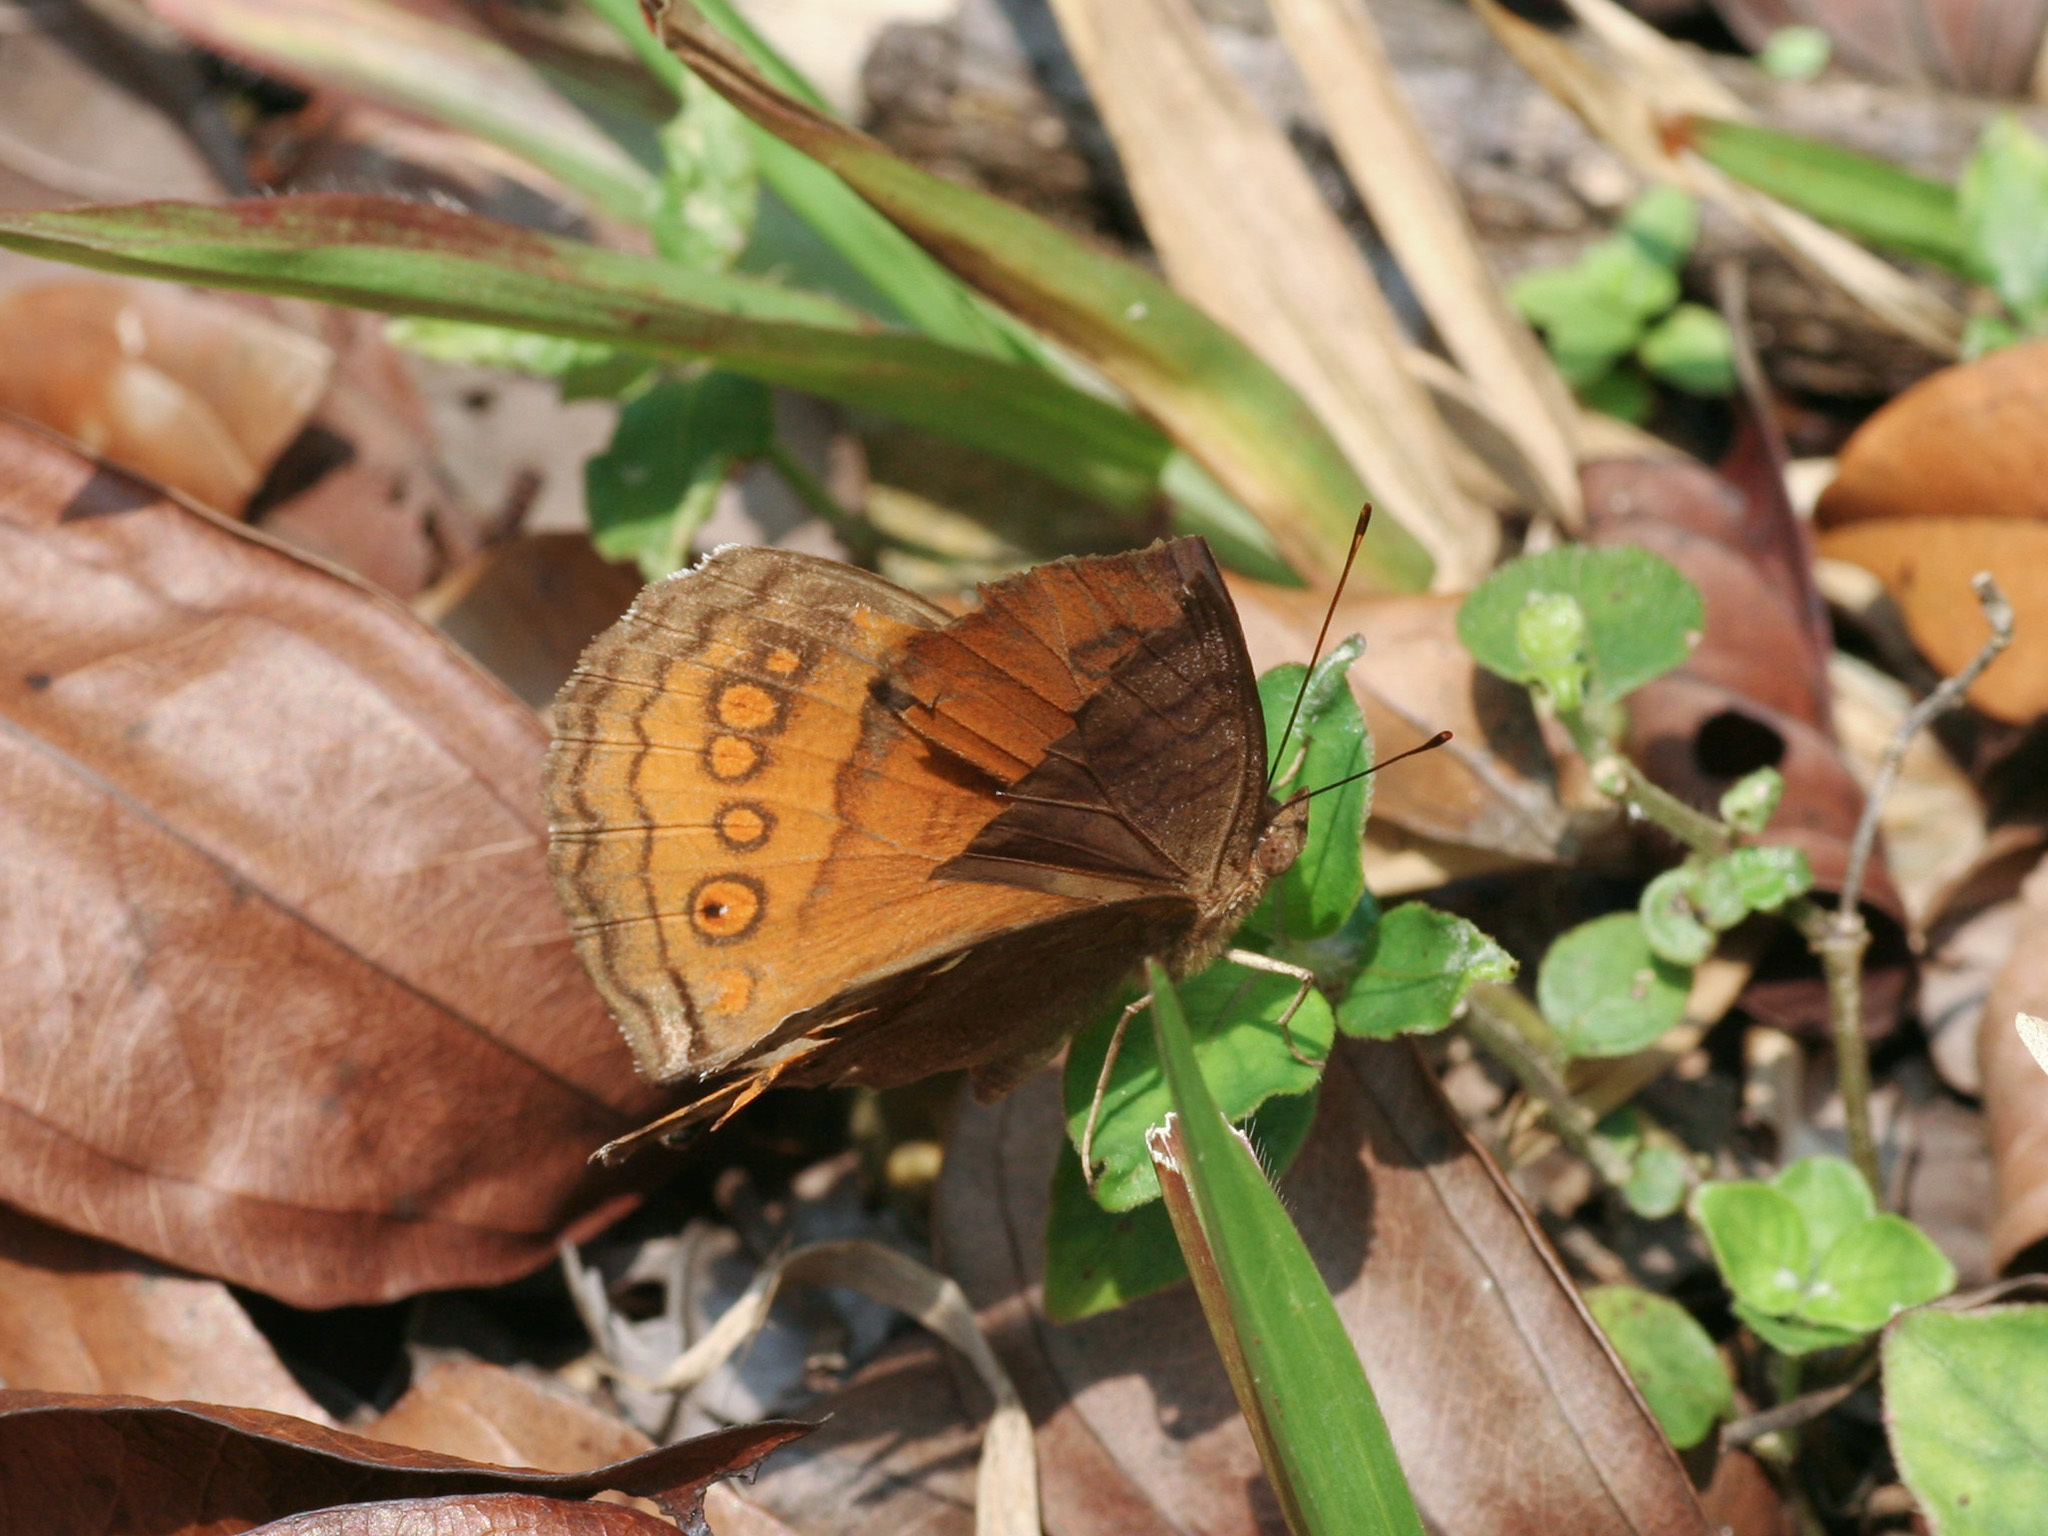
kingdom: Animalia
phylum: Arthropoda
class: Insecta
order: Lepidoptera
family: Nymphalidae
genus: Junonia
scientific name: Junonia hedonia
